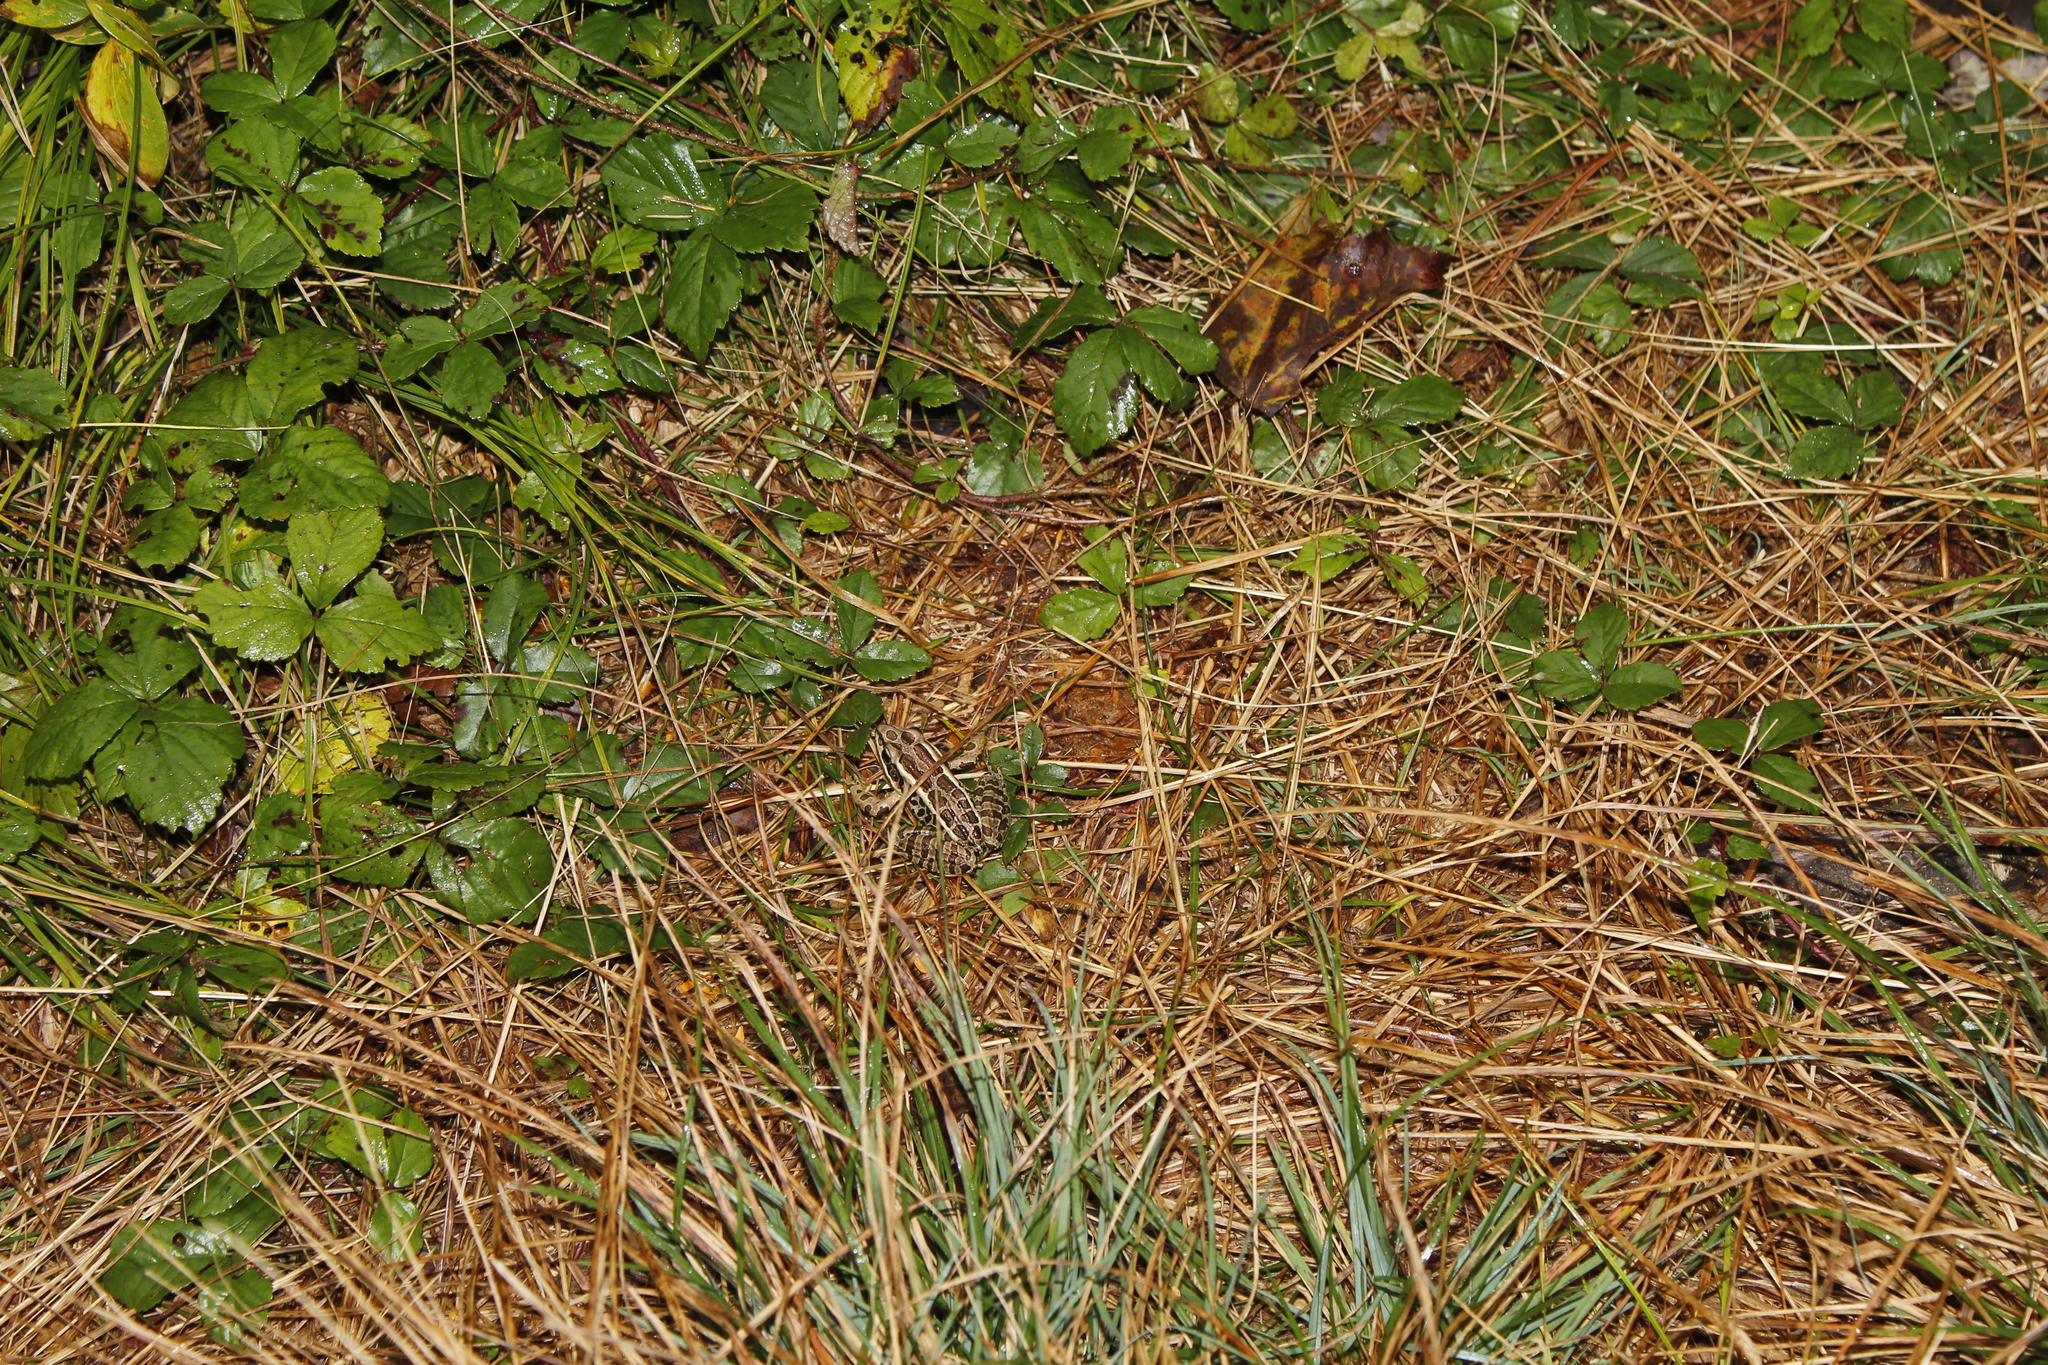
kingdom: Animalia
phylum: Chordata
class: Amphibia
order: Anura
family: Ranidae
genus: Lithobates
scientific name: Lithobates palustris
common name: Pickerel frog
